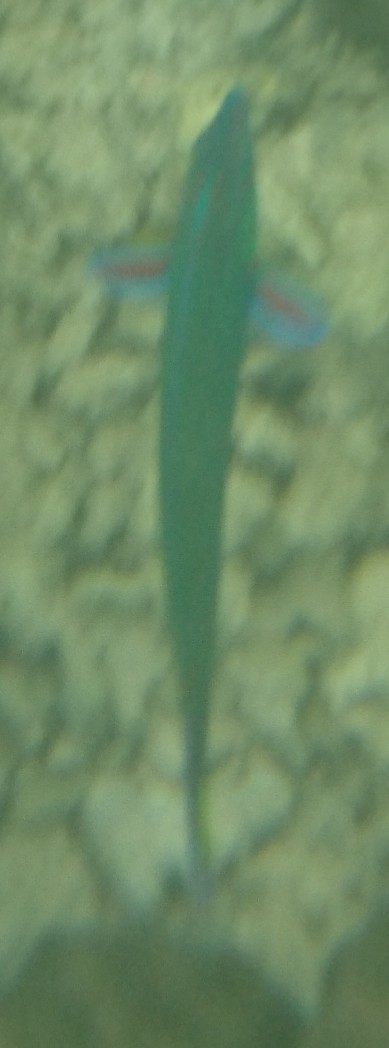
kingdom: Animalia
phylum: Chordata
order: Perciformes
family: Labridae
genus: Thalassoma
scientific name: Thalassoma lunare
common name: Blue wrasse
